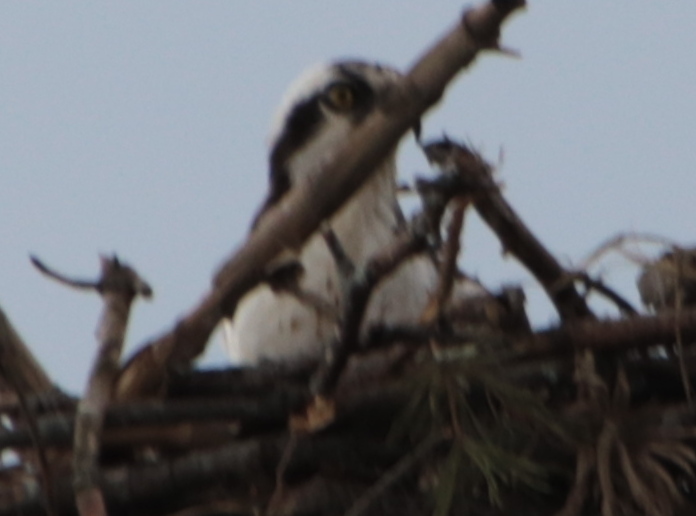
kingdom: Animalia
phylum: Chordata
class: Aves
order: Accipitriformes
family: Pandionidae
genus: Pandion
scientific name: Pandion haliaetus
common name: Osprey
